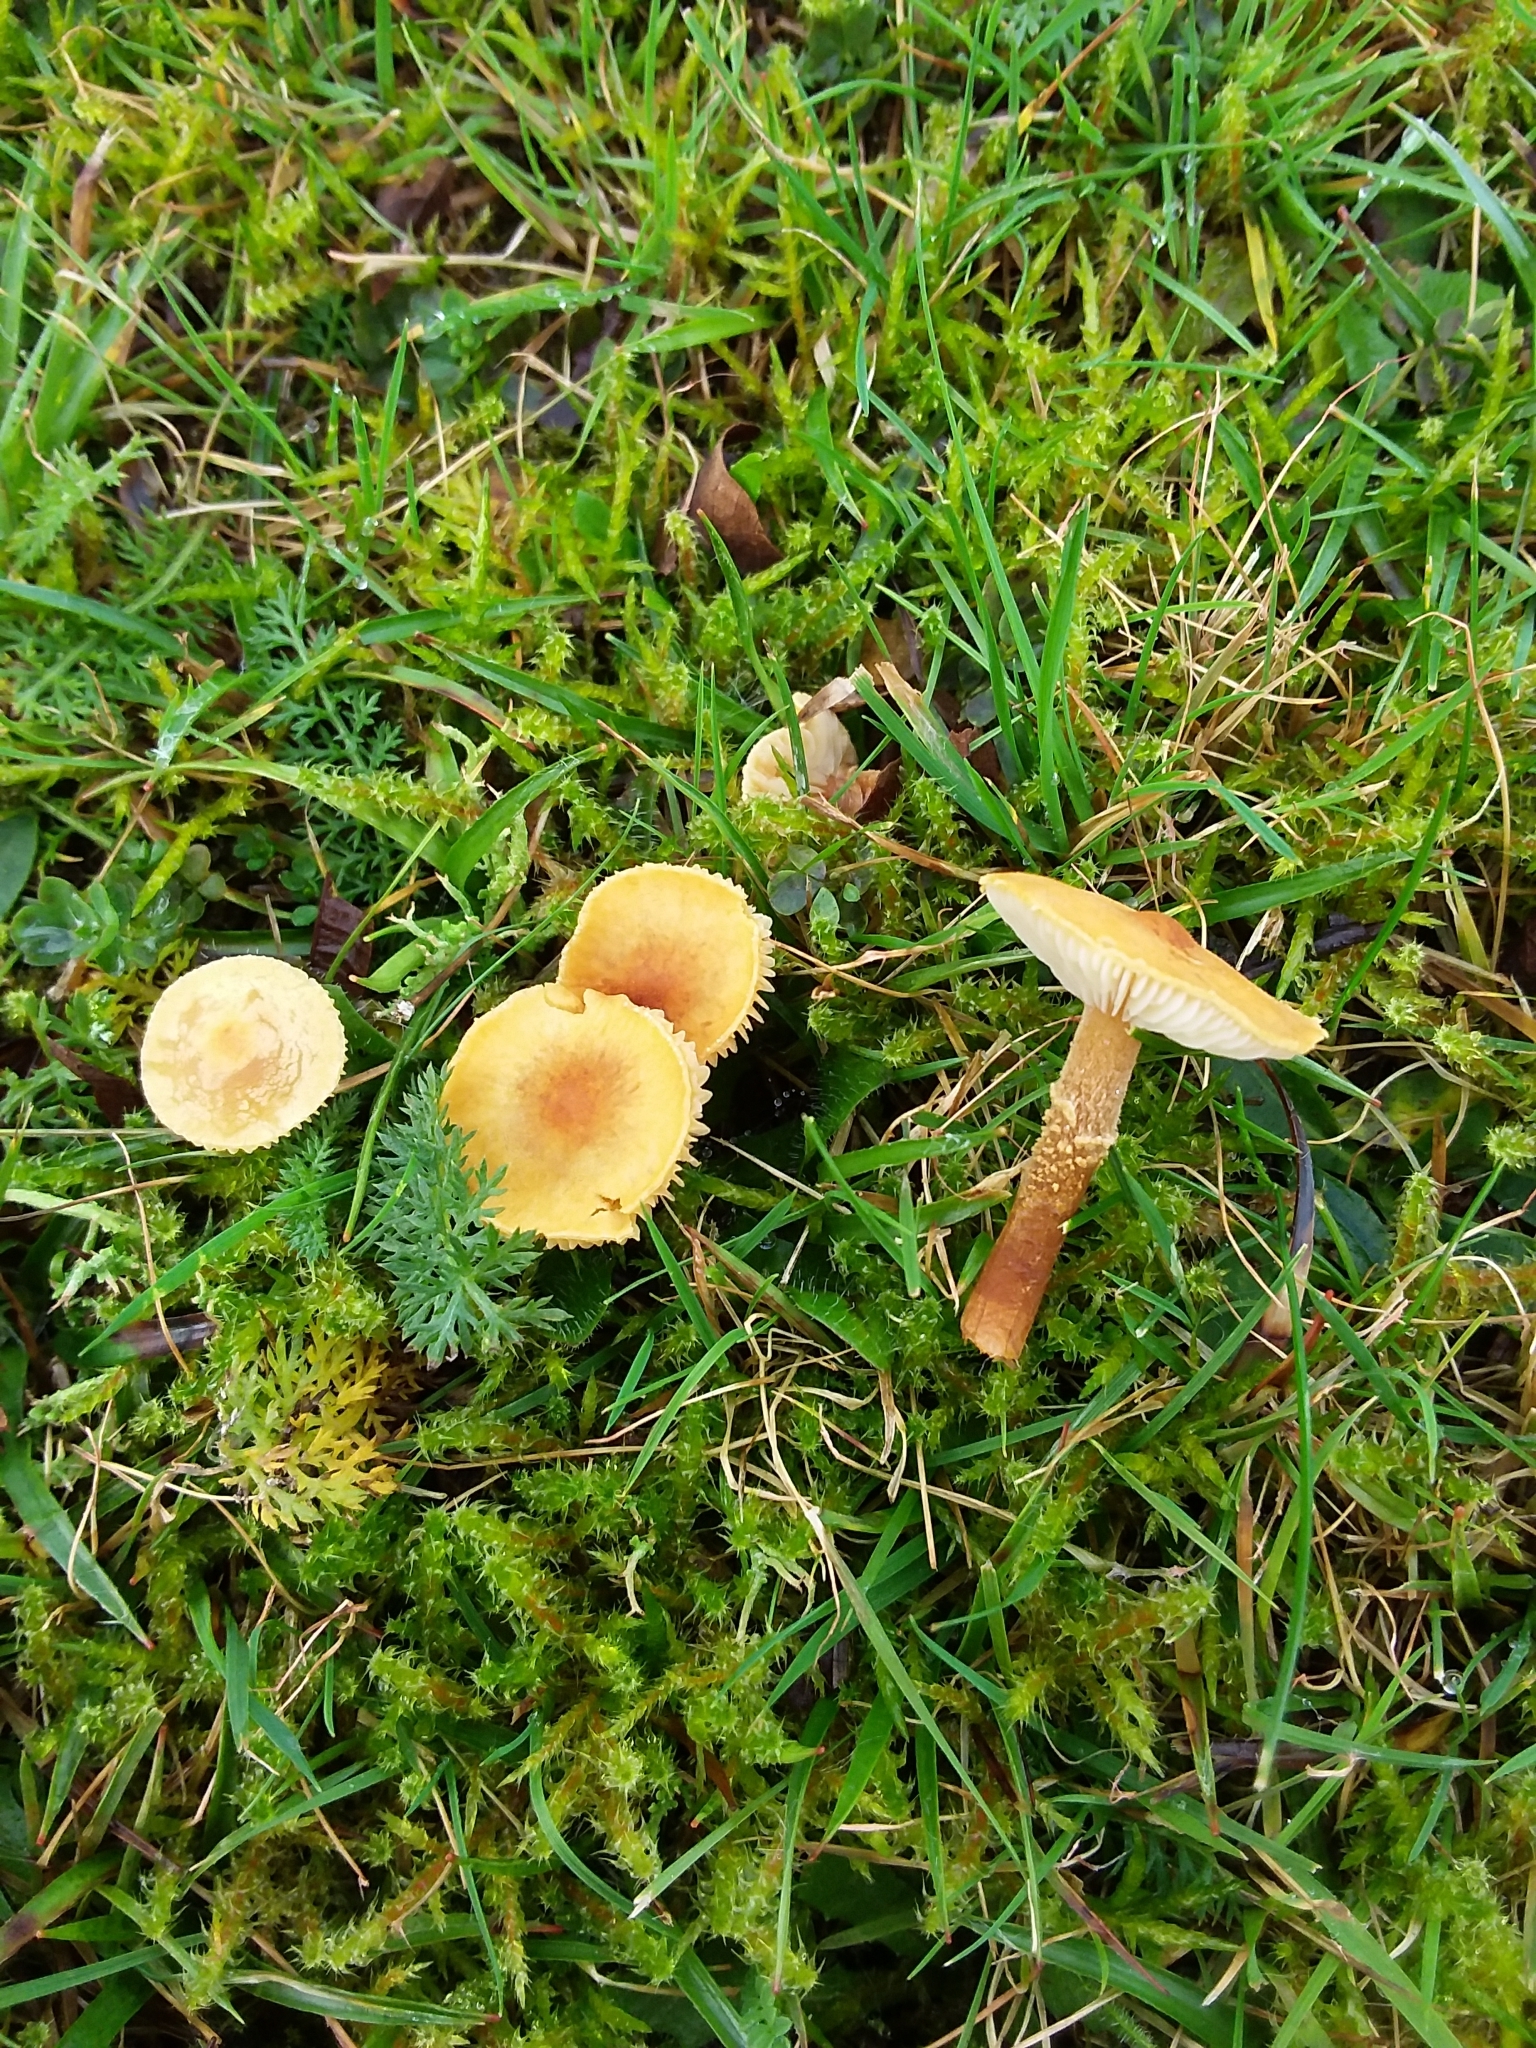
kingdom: Fungi
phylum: Basidiomycota
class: Agaricomycetes
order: Agaricales
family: Tricholomataceae
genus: Cystoderma
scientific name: Cystoderma amianthinum
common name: Earthy powdercap
